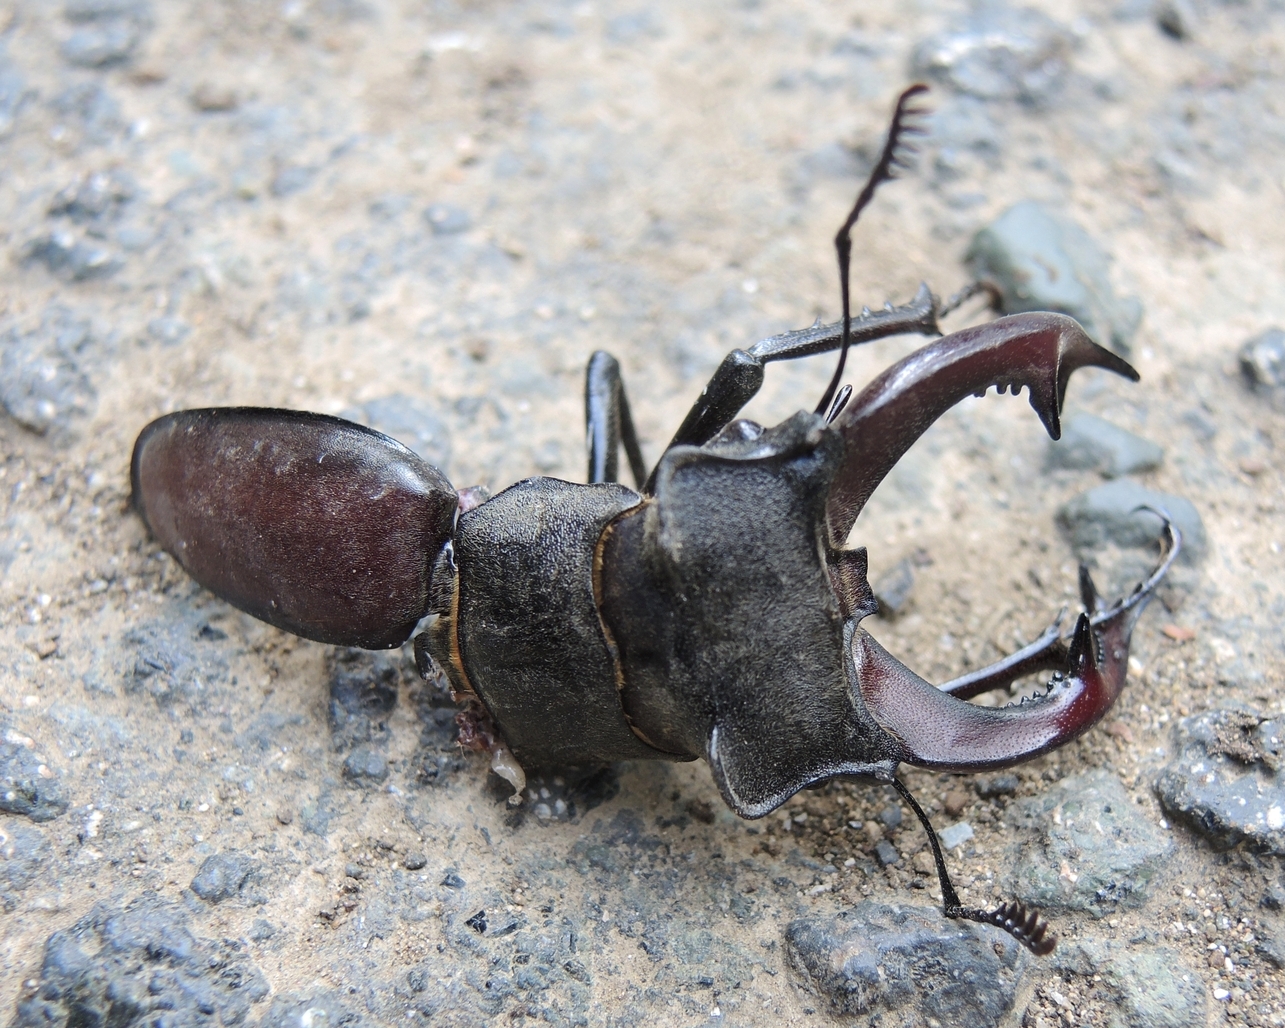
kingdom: Animalia
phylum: Arthropoda
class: Insecta
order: Coleoptera
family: Lucanidae
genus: Lucanus
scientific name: Lucanus cervus
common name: Stag beetle
